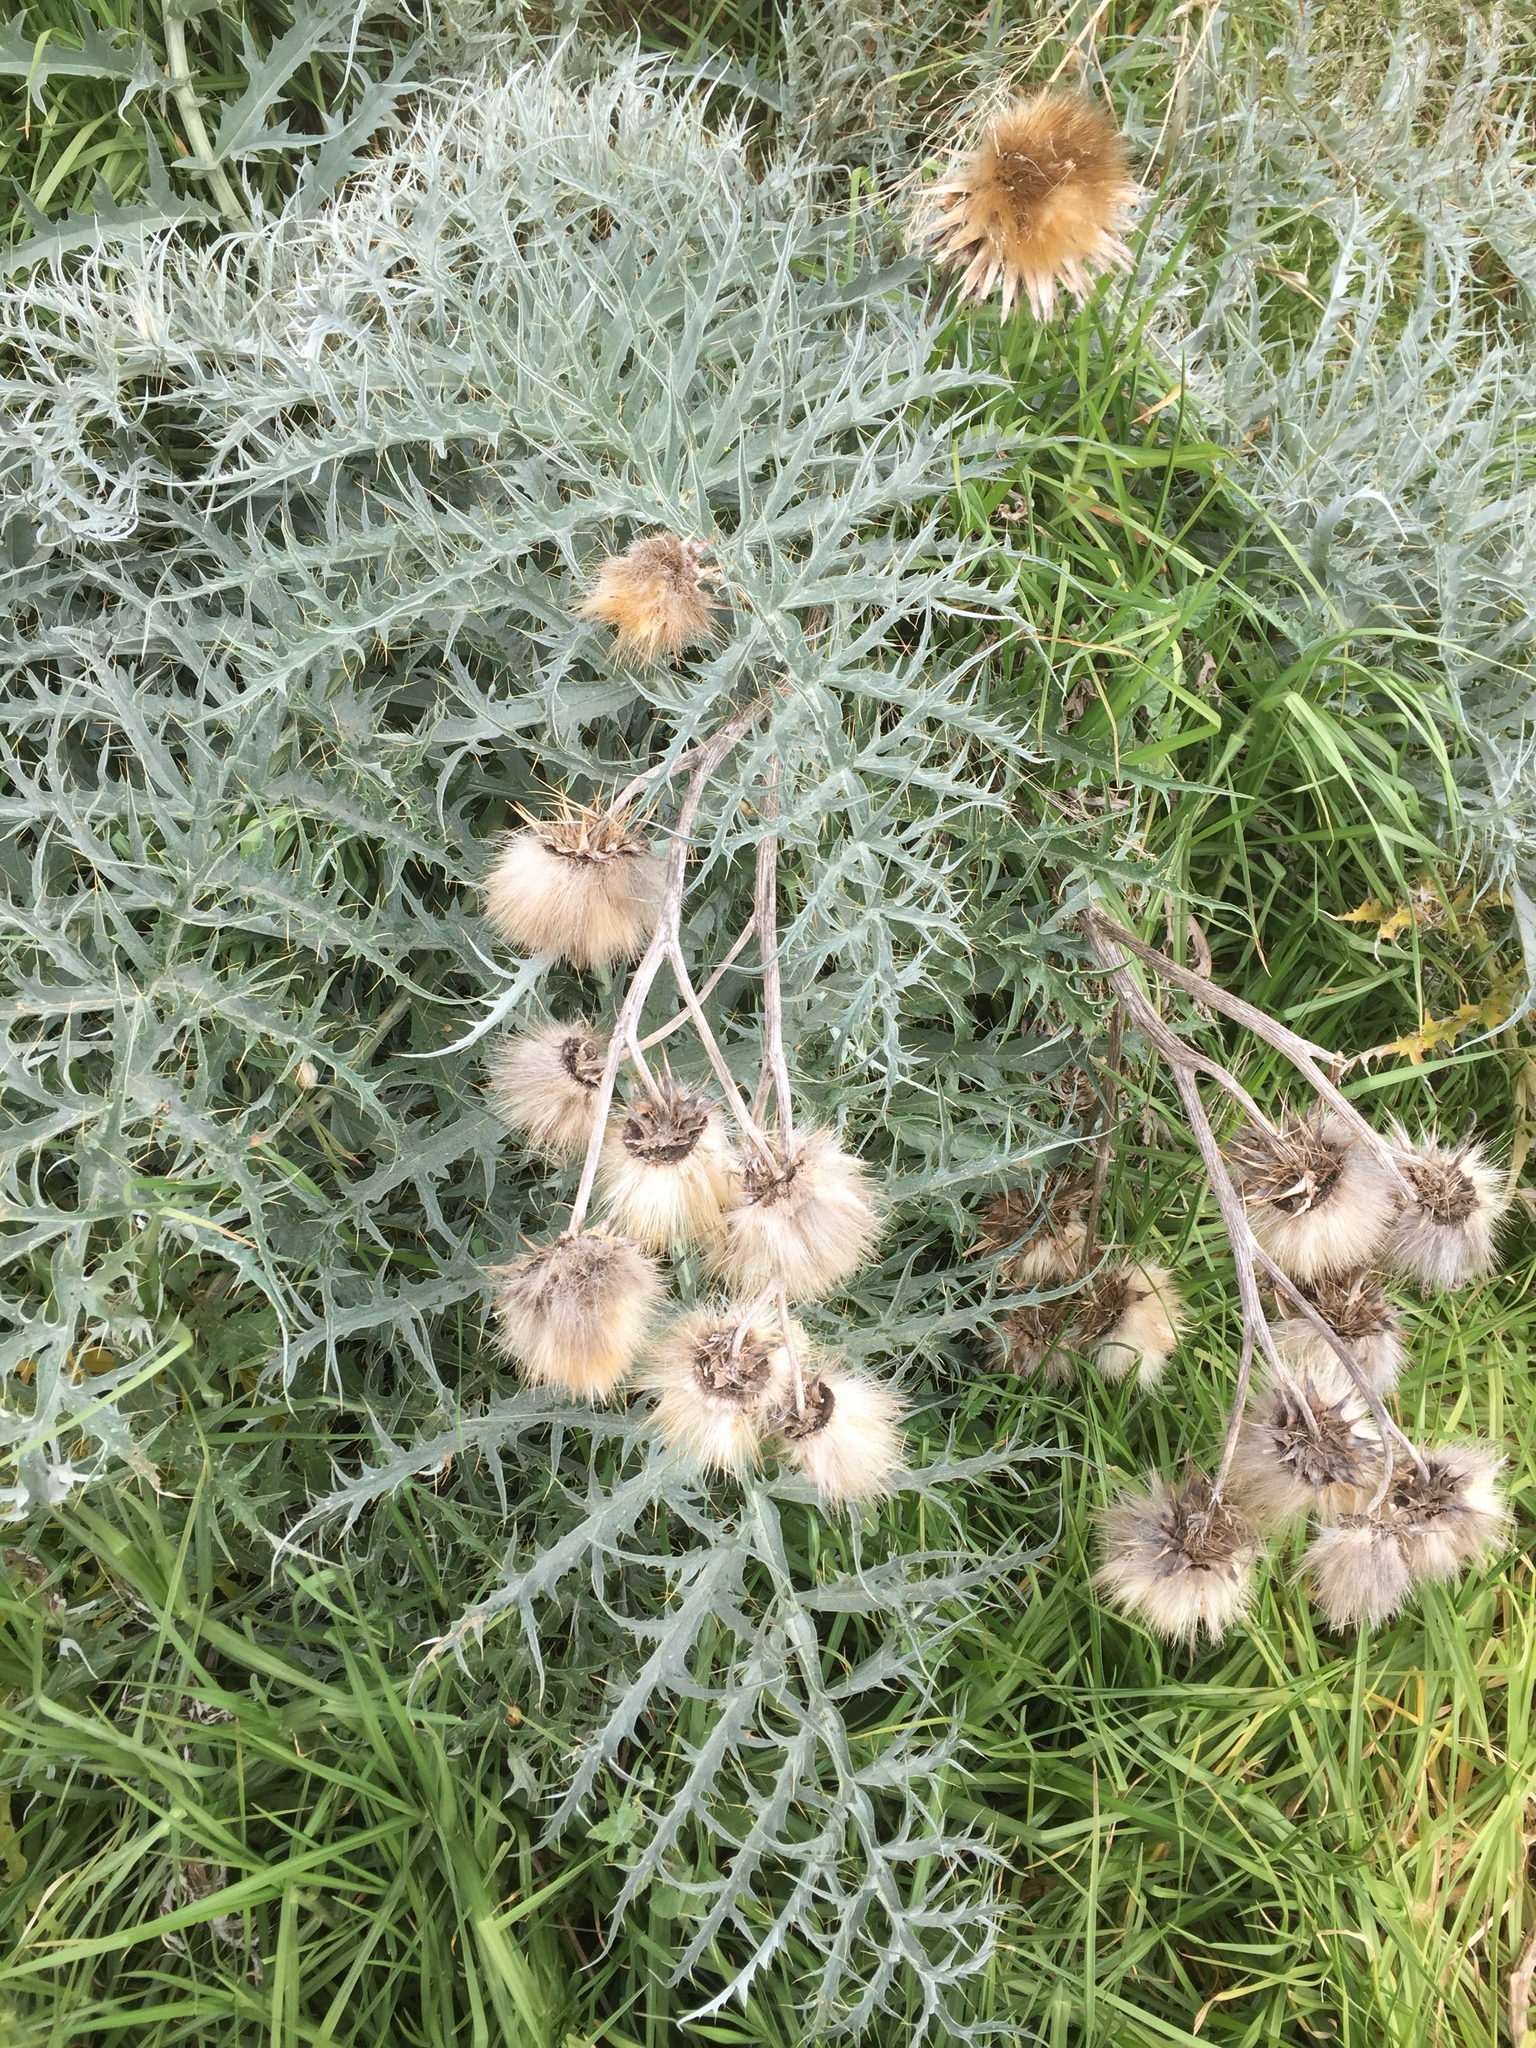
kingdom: Plantae
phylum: Tracheophyta
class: Magnoliopsida
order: Asterales
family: Asteraceae
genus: Cynara
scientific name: Cynara cardunculus
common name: Globe artichoke
